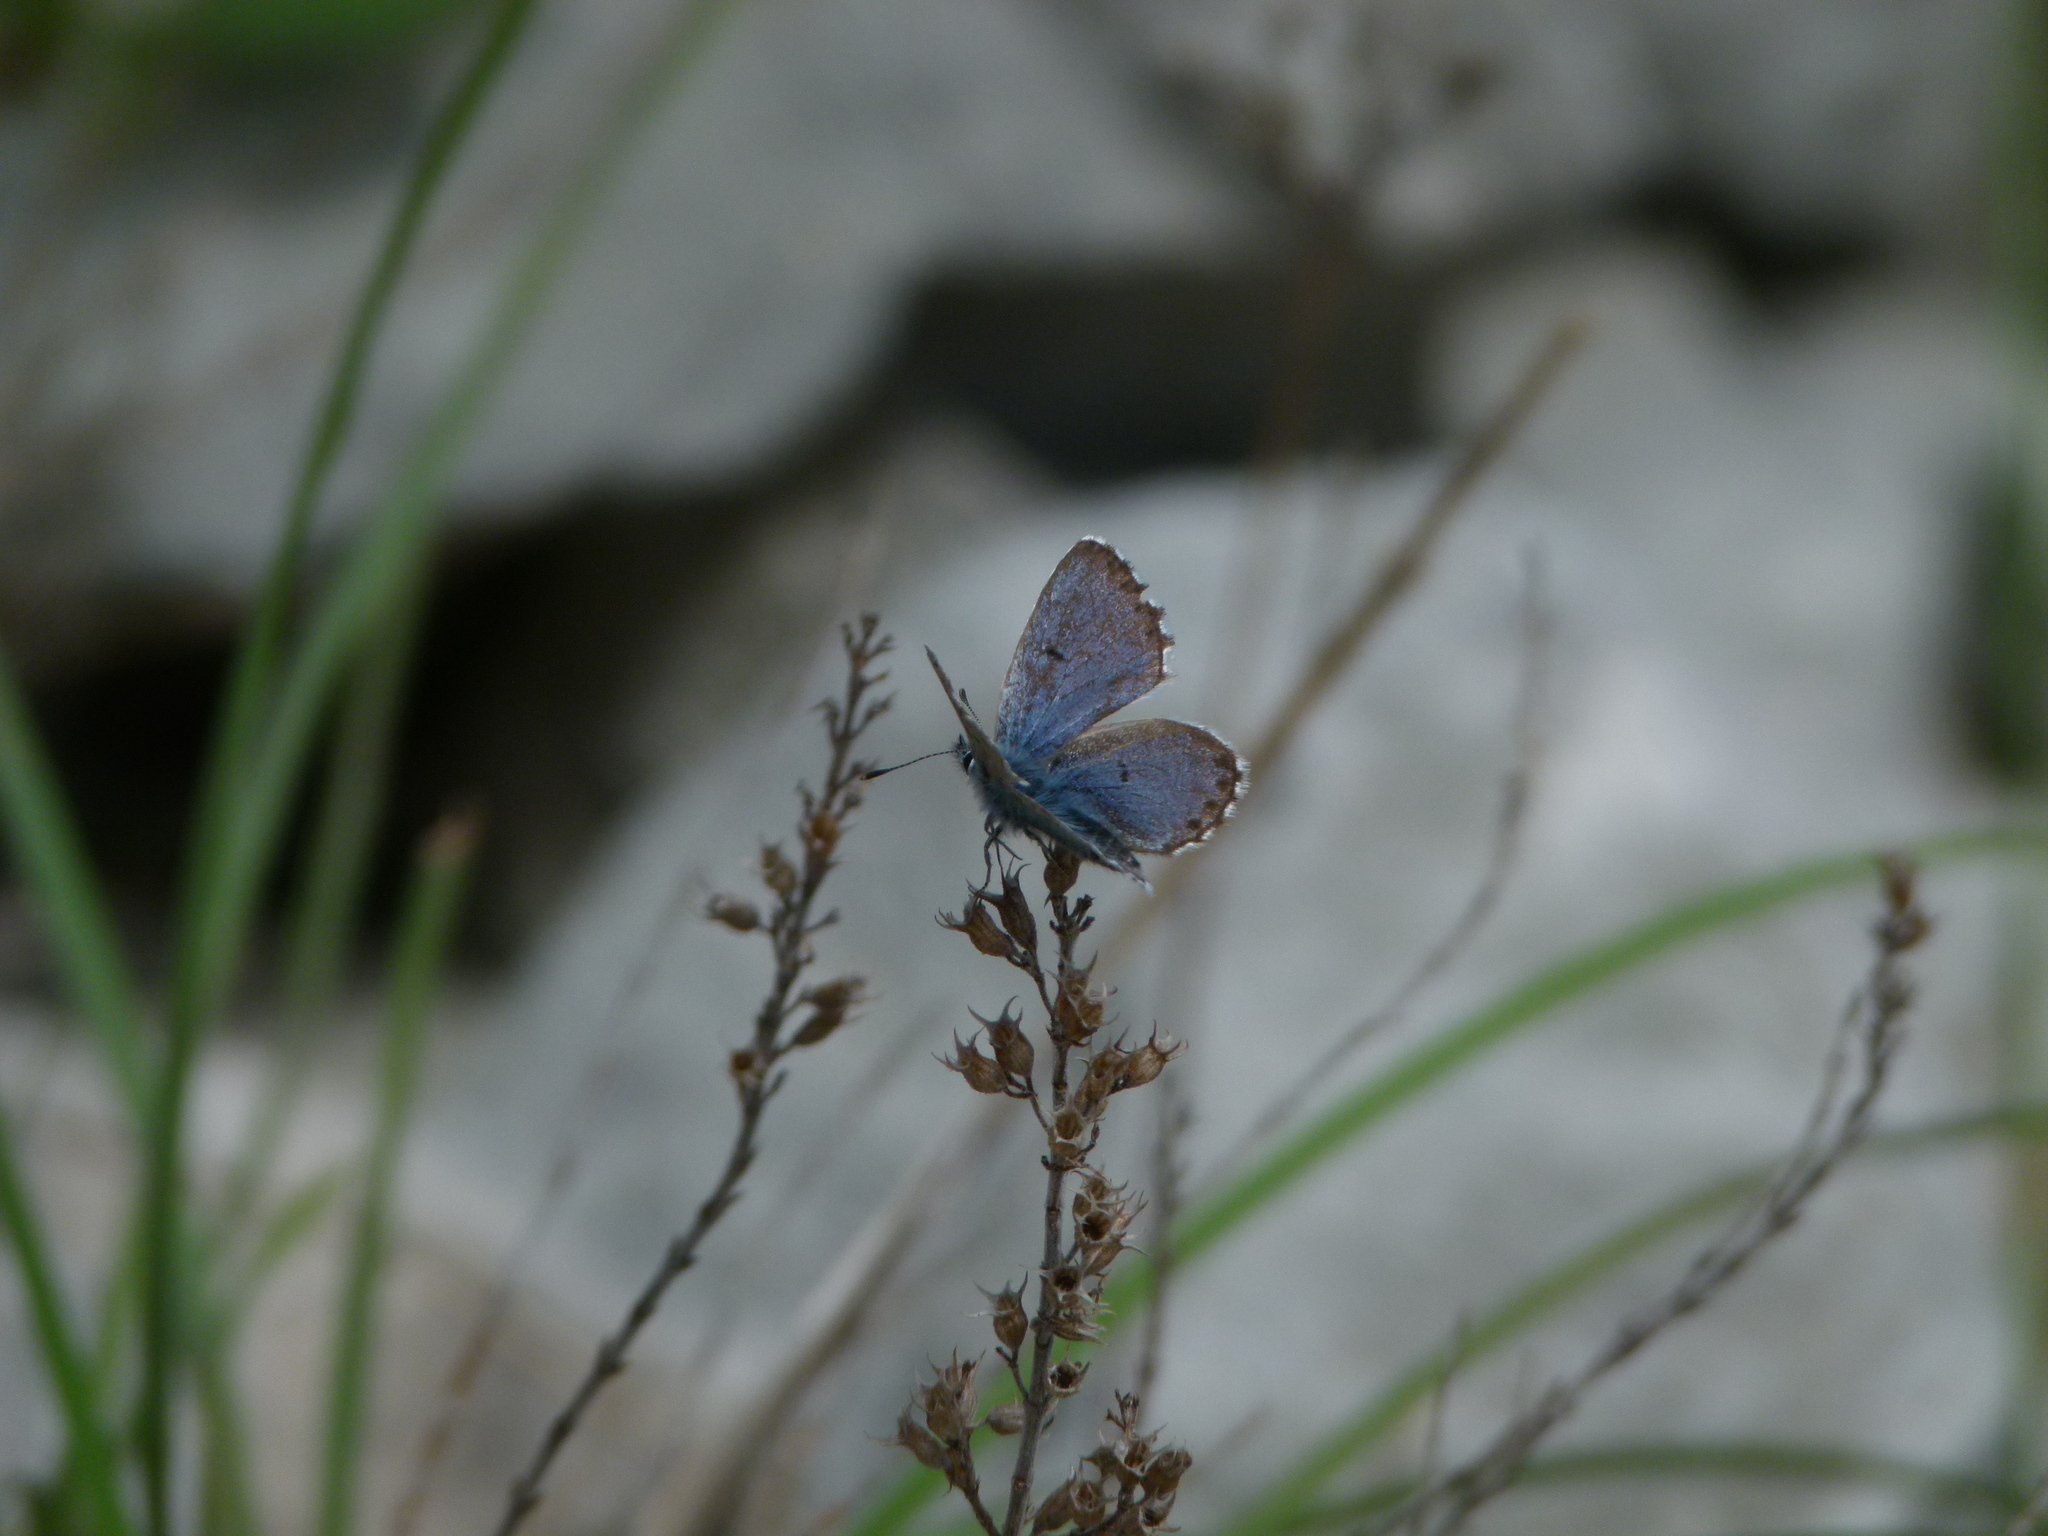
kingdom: Animalia
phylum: Arthropoda
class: Insecta
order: Lepidoptera
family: Lycaenidae
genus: Pseudophilotes
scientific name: Pseudophilotes baton
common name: Baton blue
